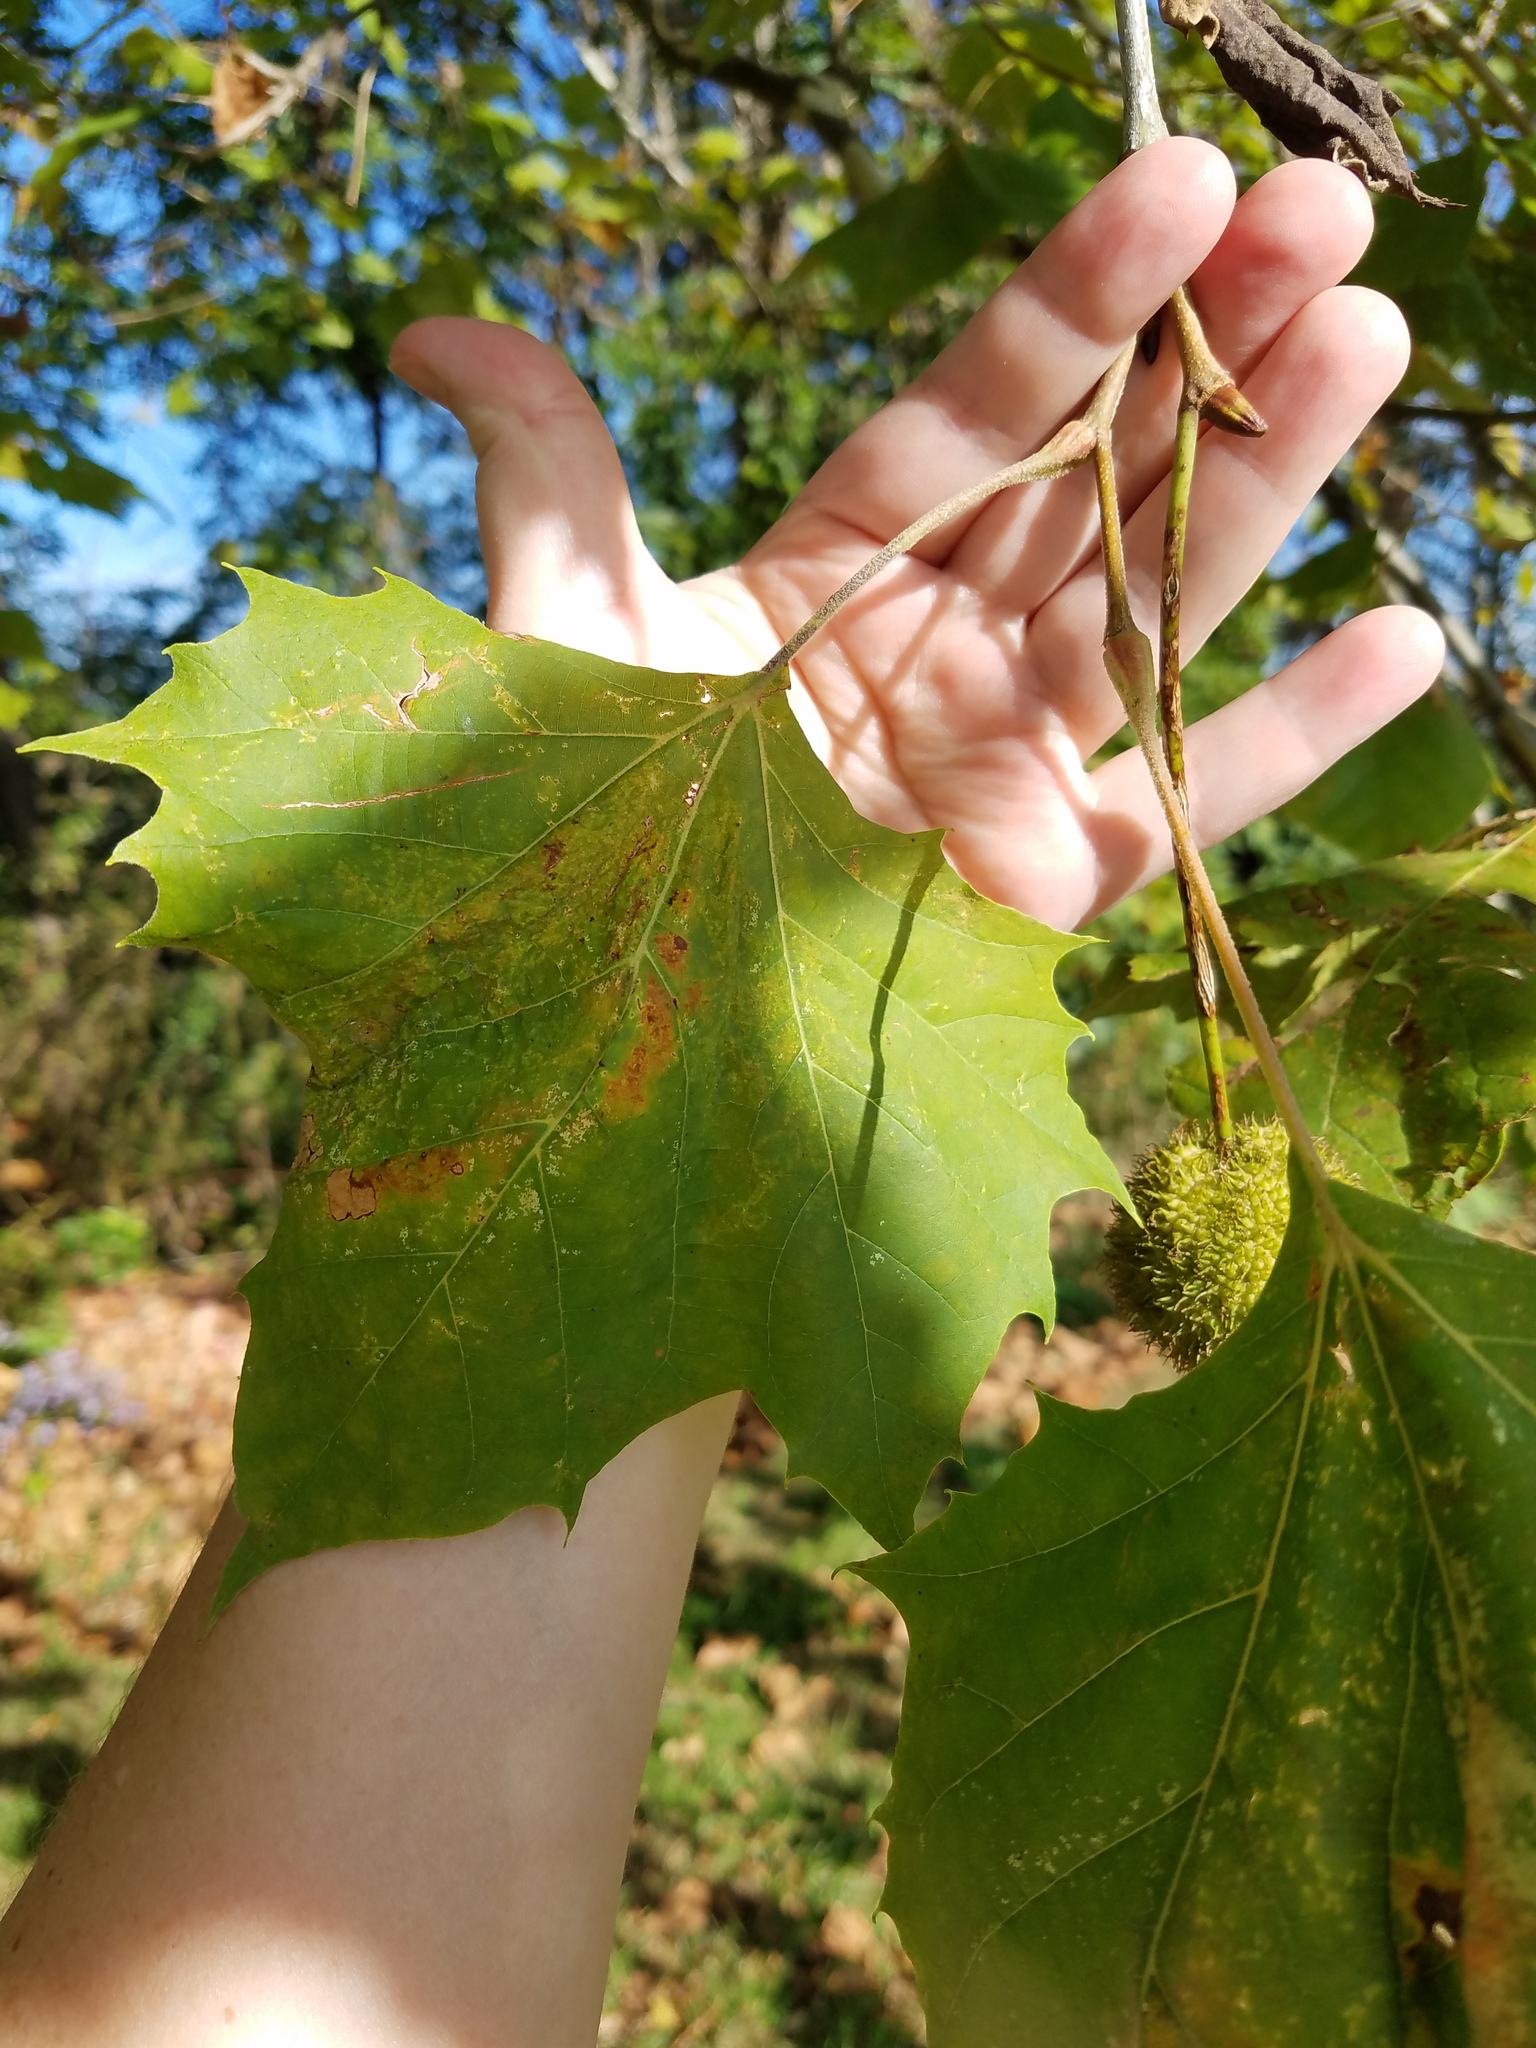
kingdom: Plantae
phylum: Tracheophyta
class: Magnoliopsida
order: Proteales
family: Platanaceae
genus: Platanus
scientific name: Platanus occidentalis
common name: American sycamore
